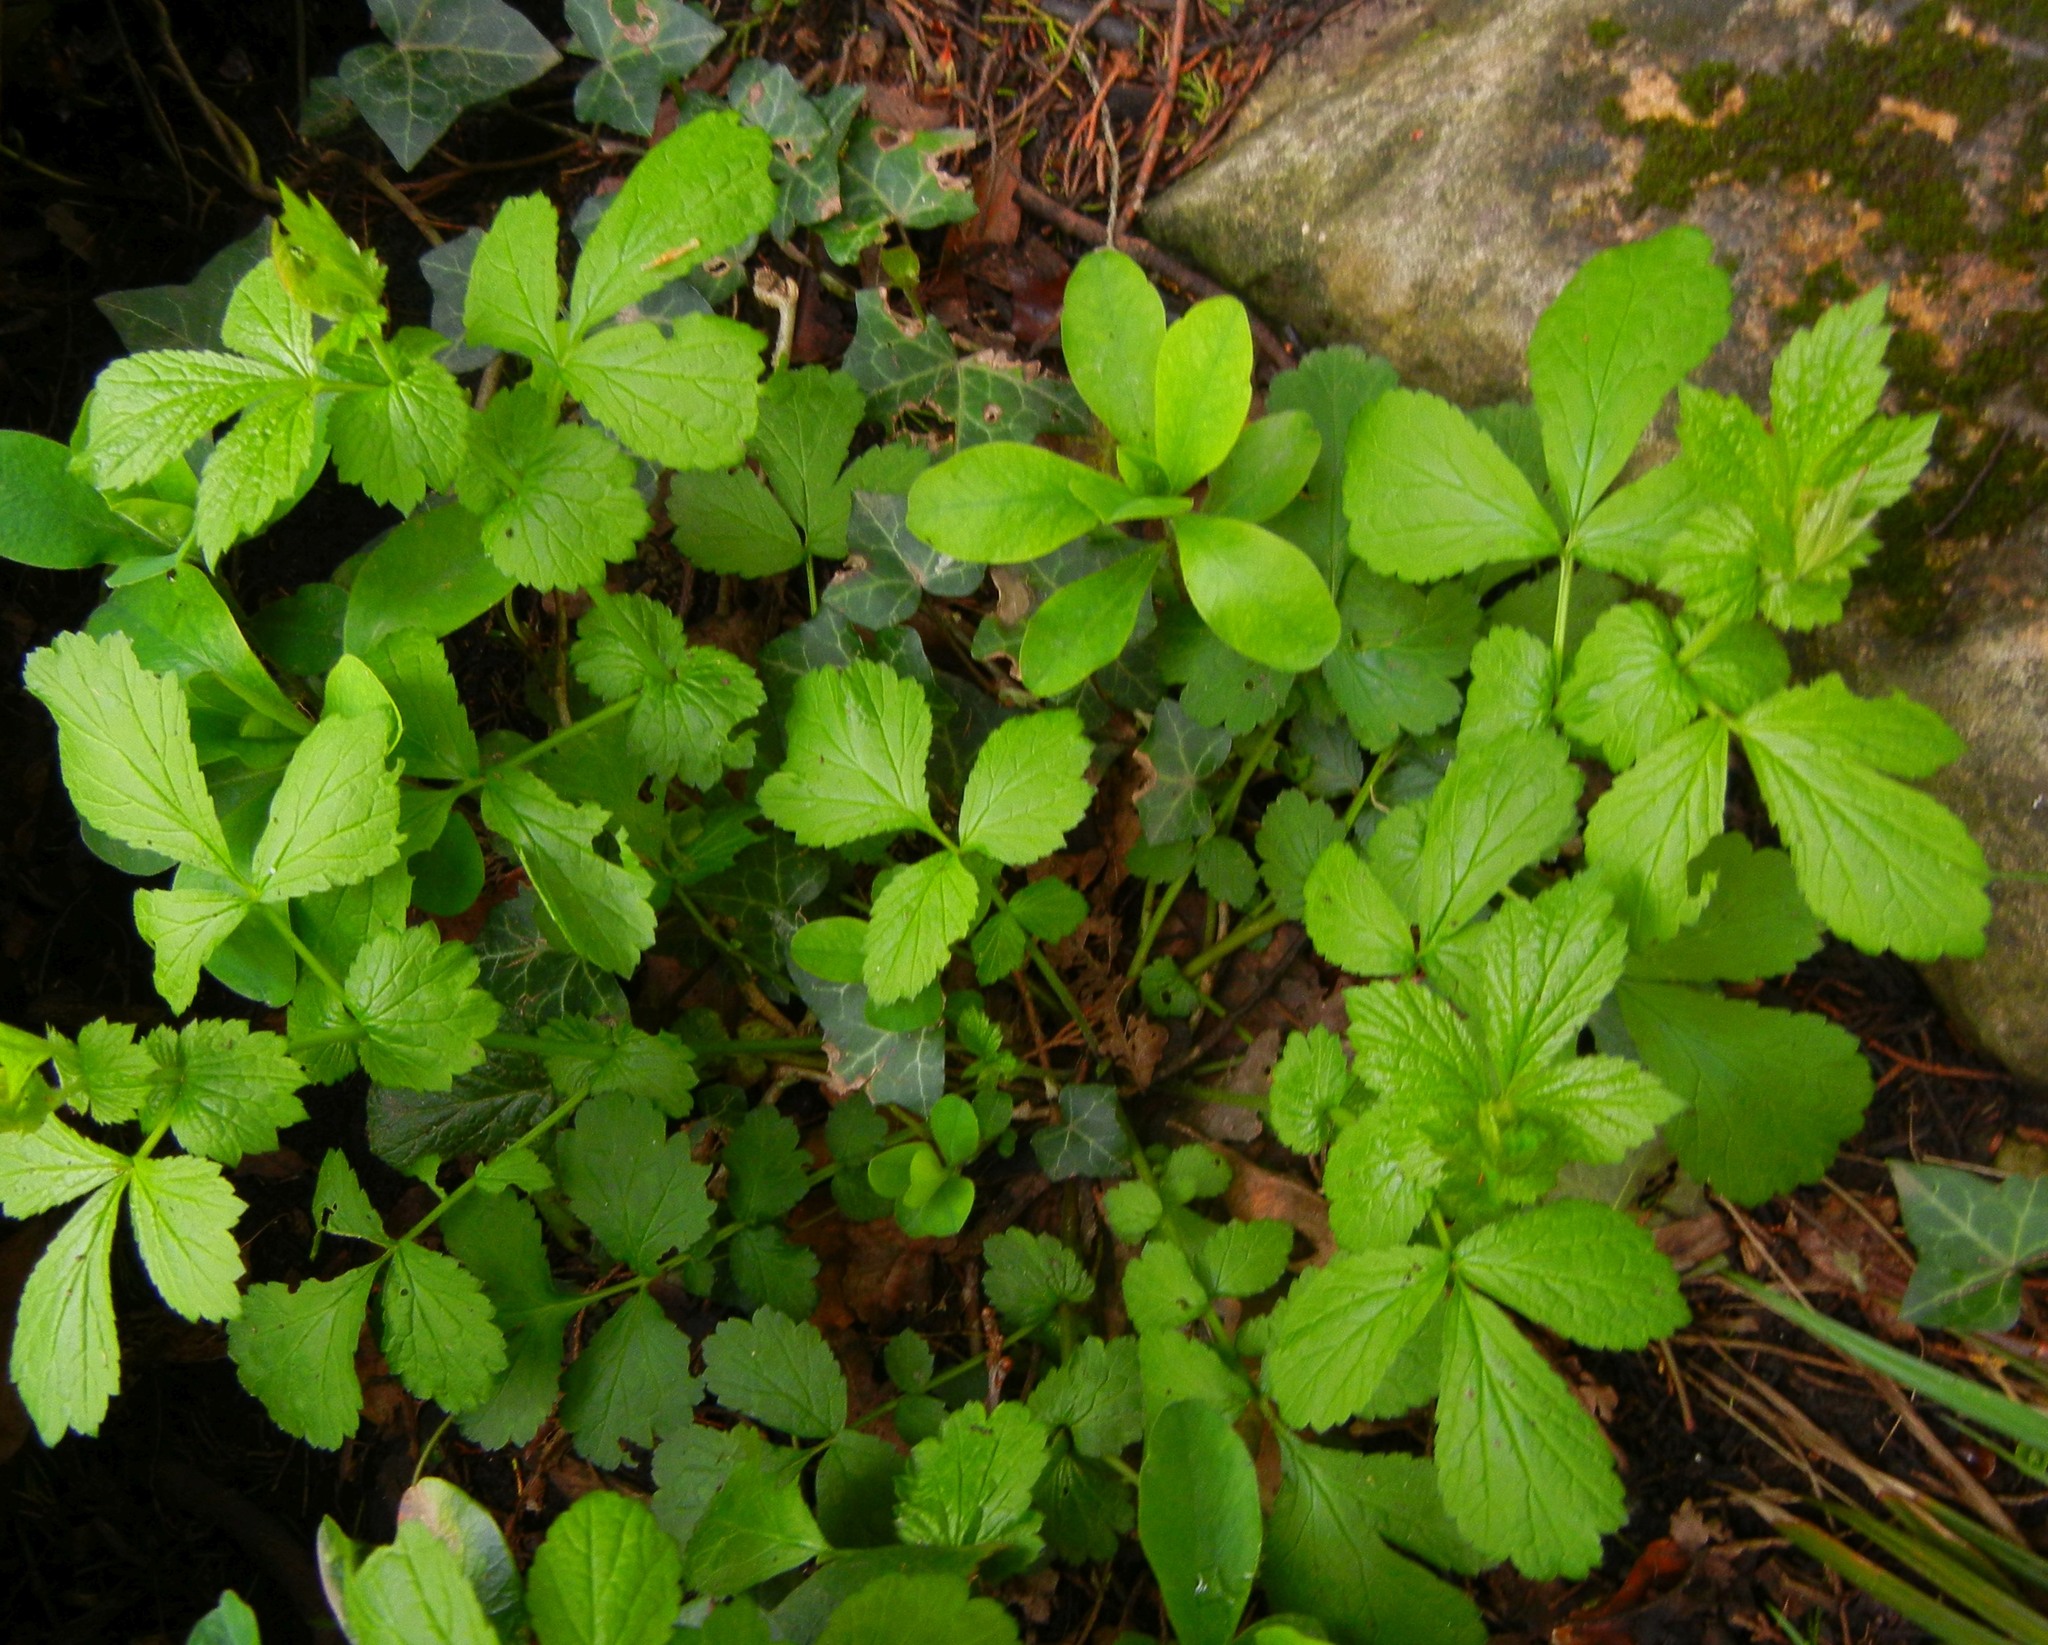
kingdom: Plantae
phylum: Tracheophyta
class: Magnoliopsida
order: Rosales
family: Rosaceae
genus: Geum
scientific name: Geum urbanum
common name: Wood avens
